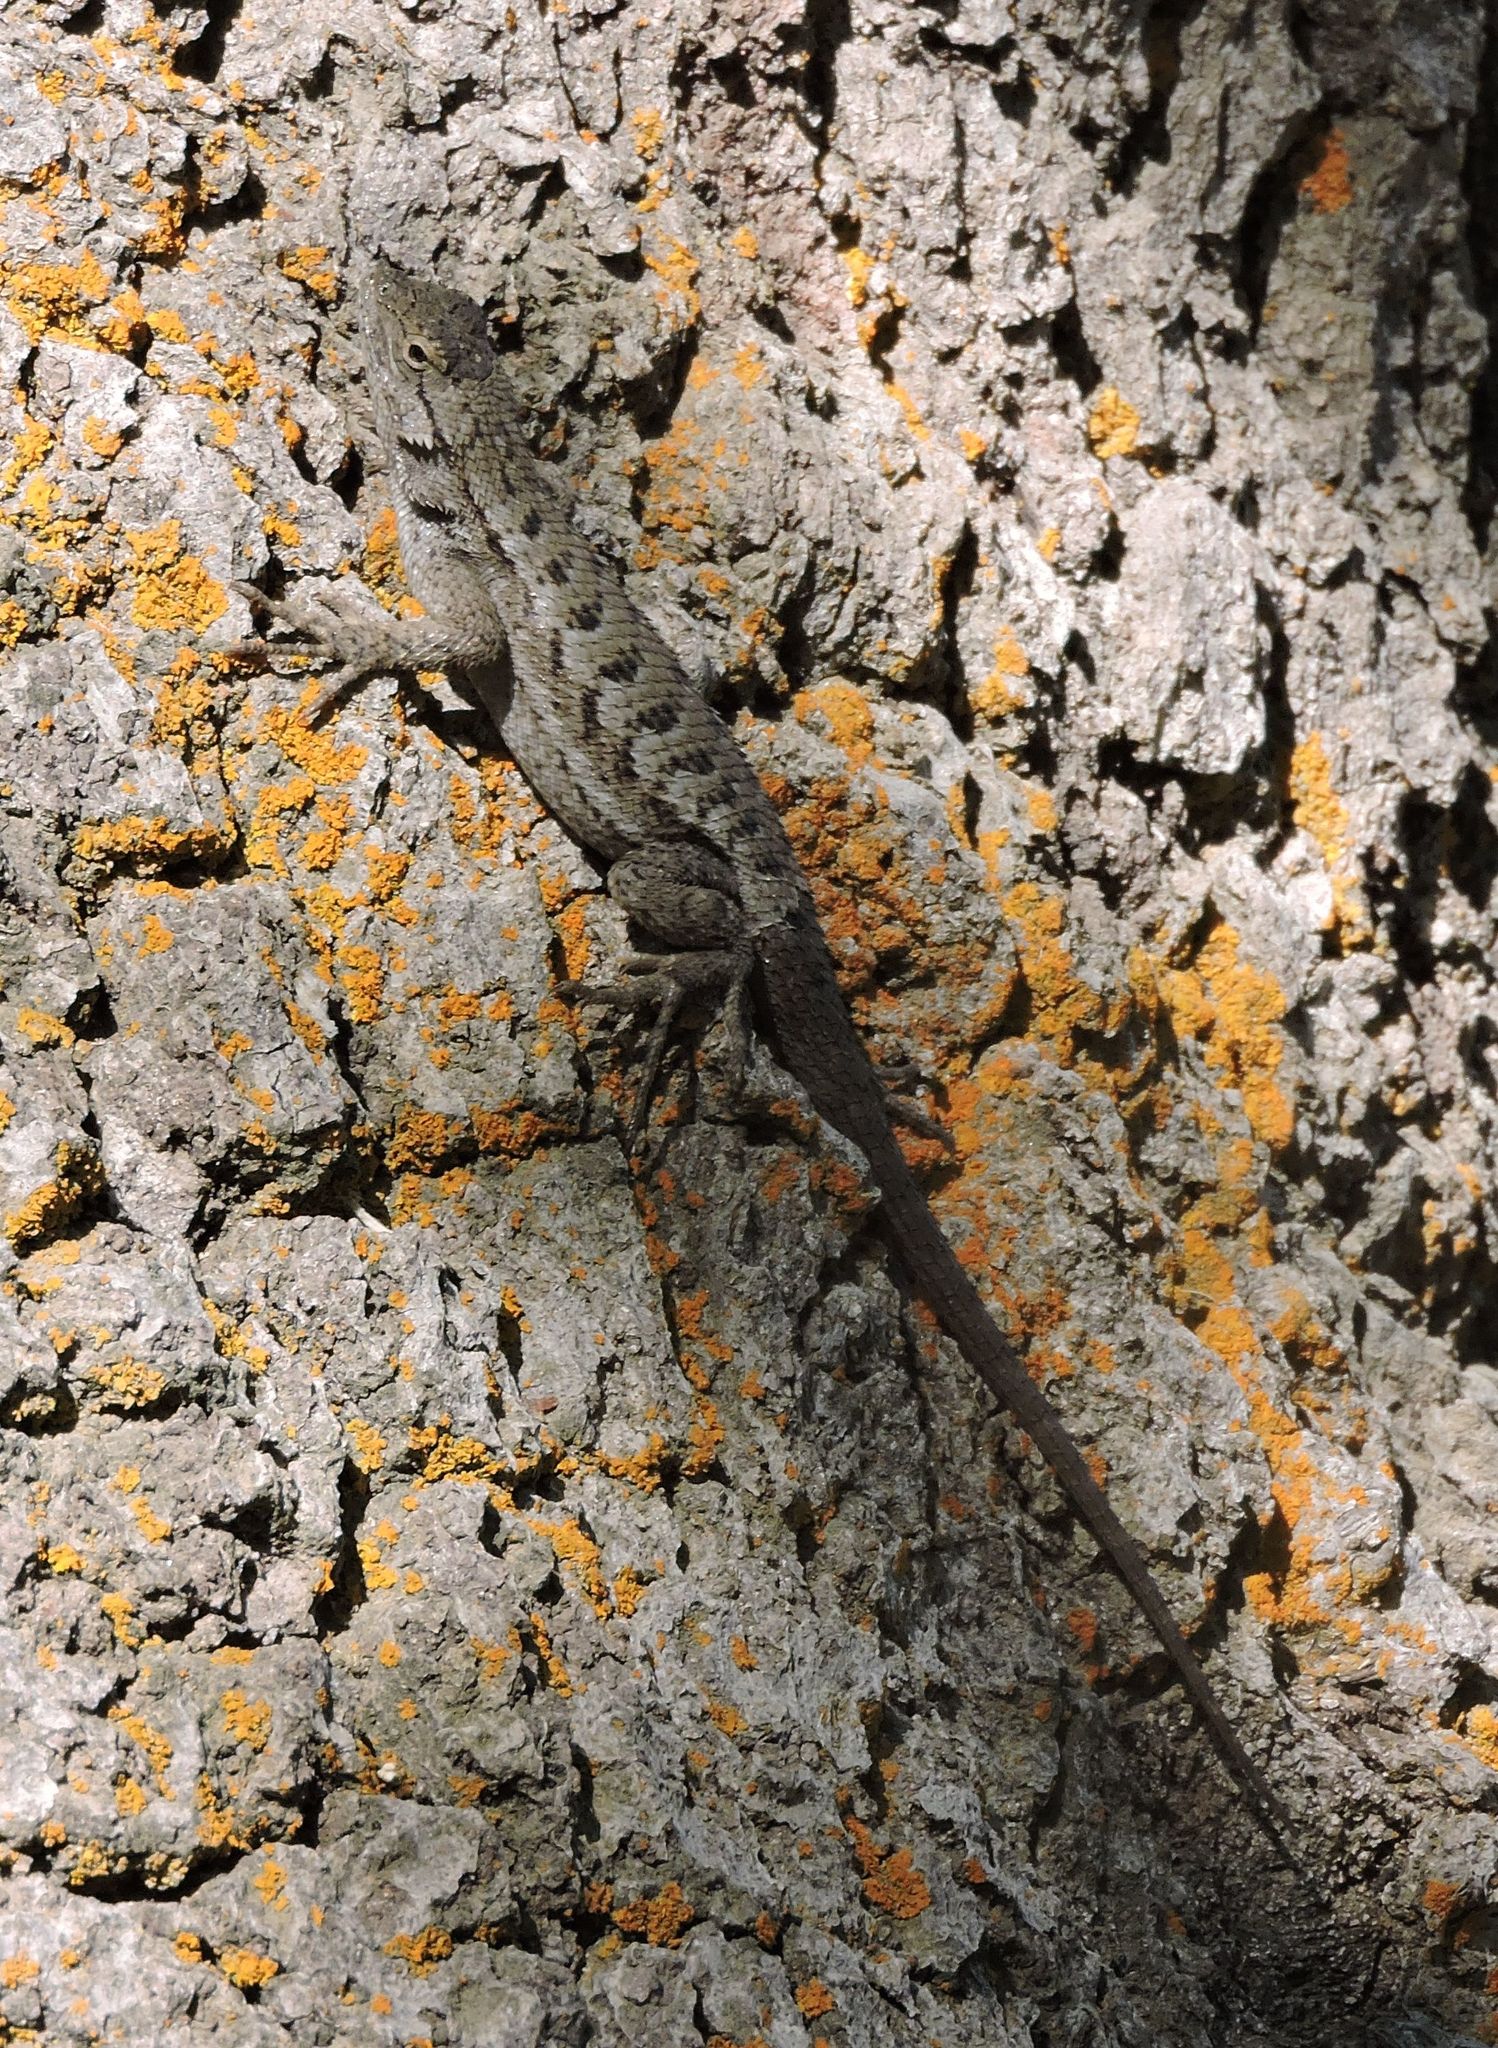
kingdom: Animalia
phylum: Chordata
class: Squamata
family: Phrynosomatidae
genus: Sceloporus
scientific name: Sceloporus occidentalis
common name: Western fence lizard
